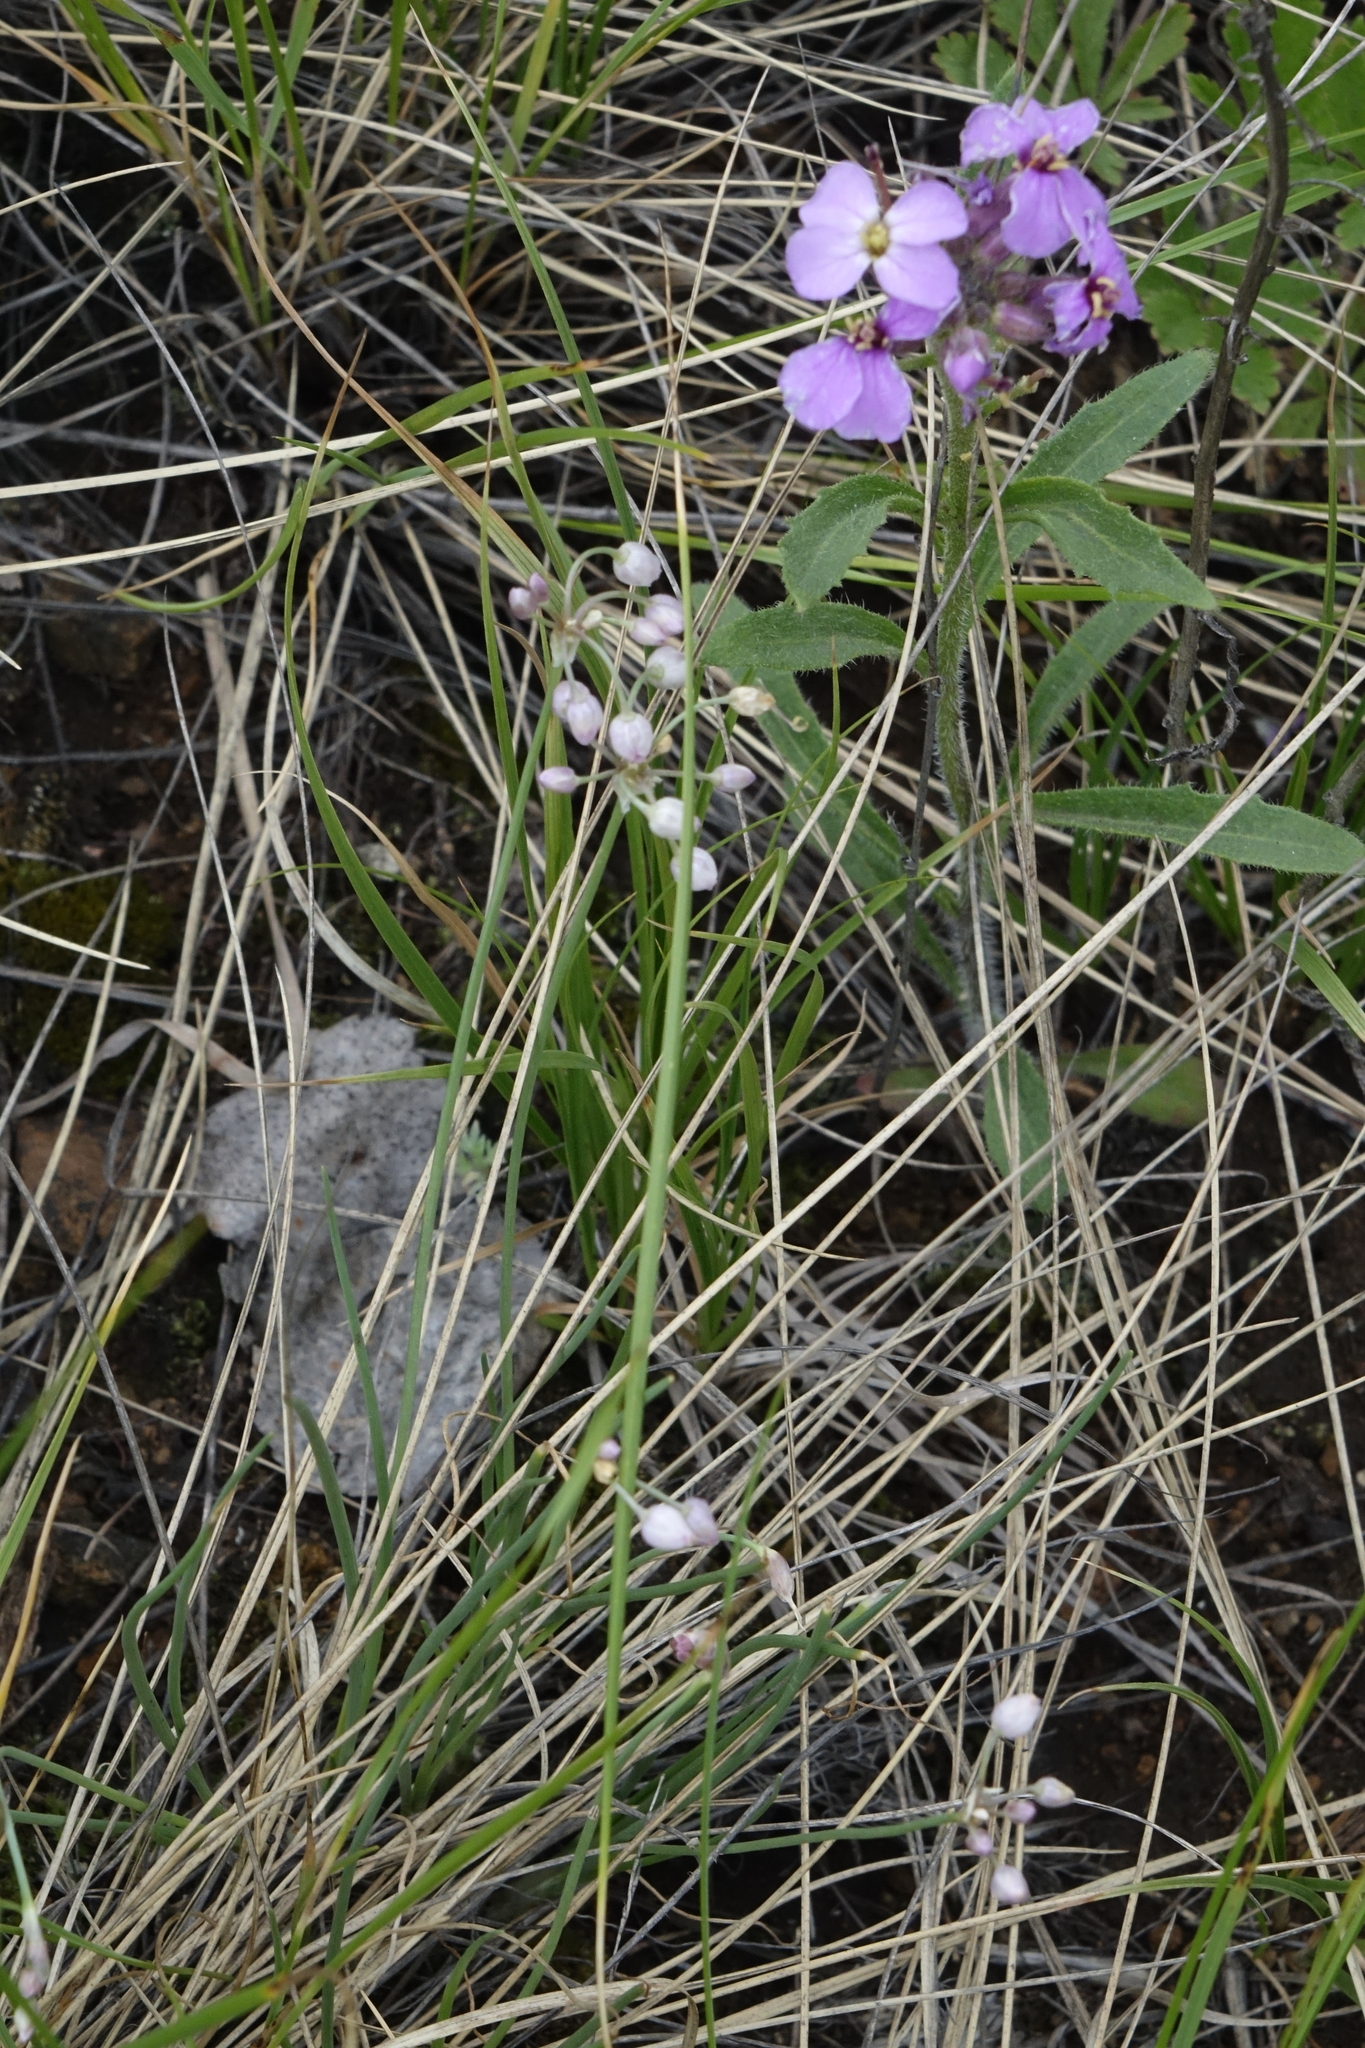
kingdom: Plantae
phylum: Tracheophyta
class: Liliopsida
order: Asparagales
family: Amaryllidaceae
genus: Allium
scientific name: Allium vodopjanovae
